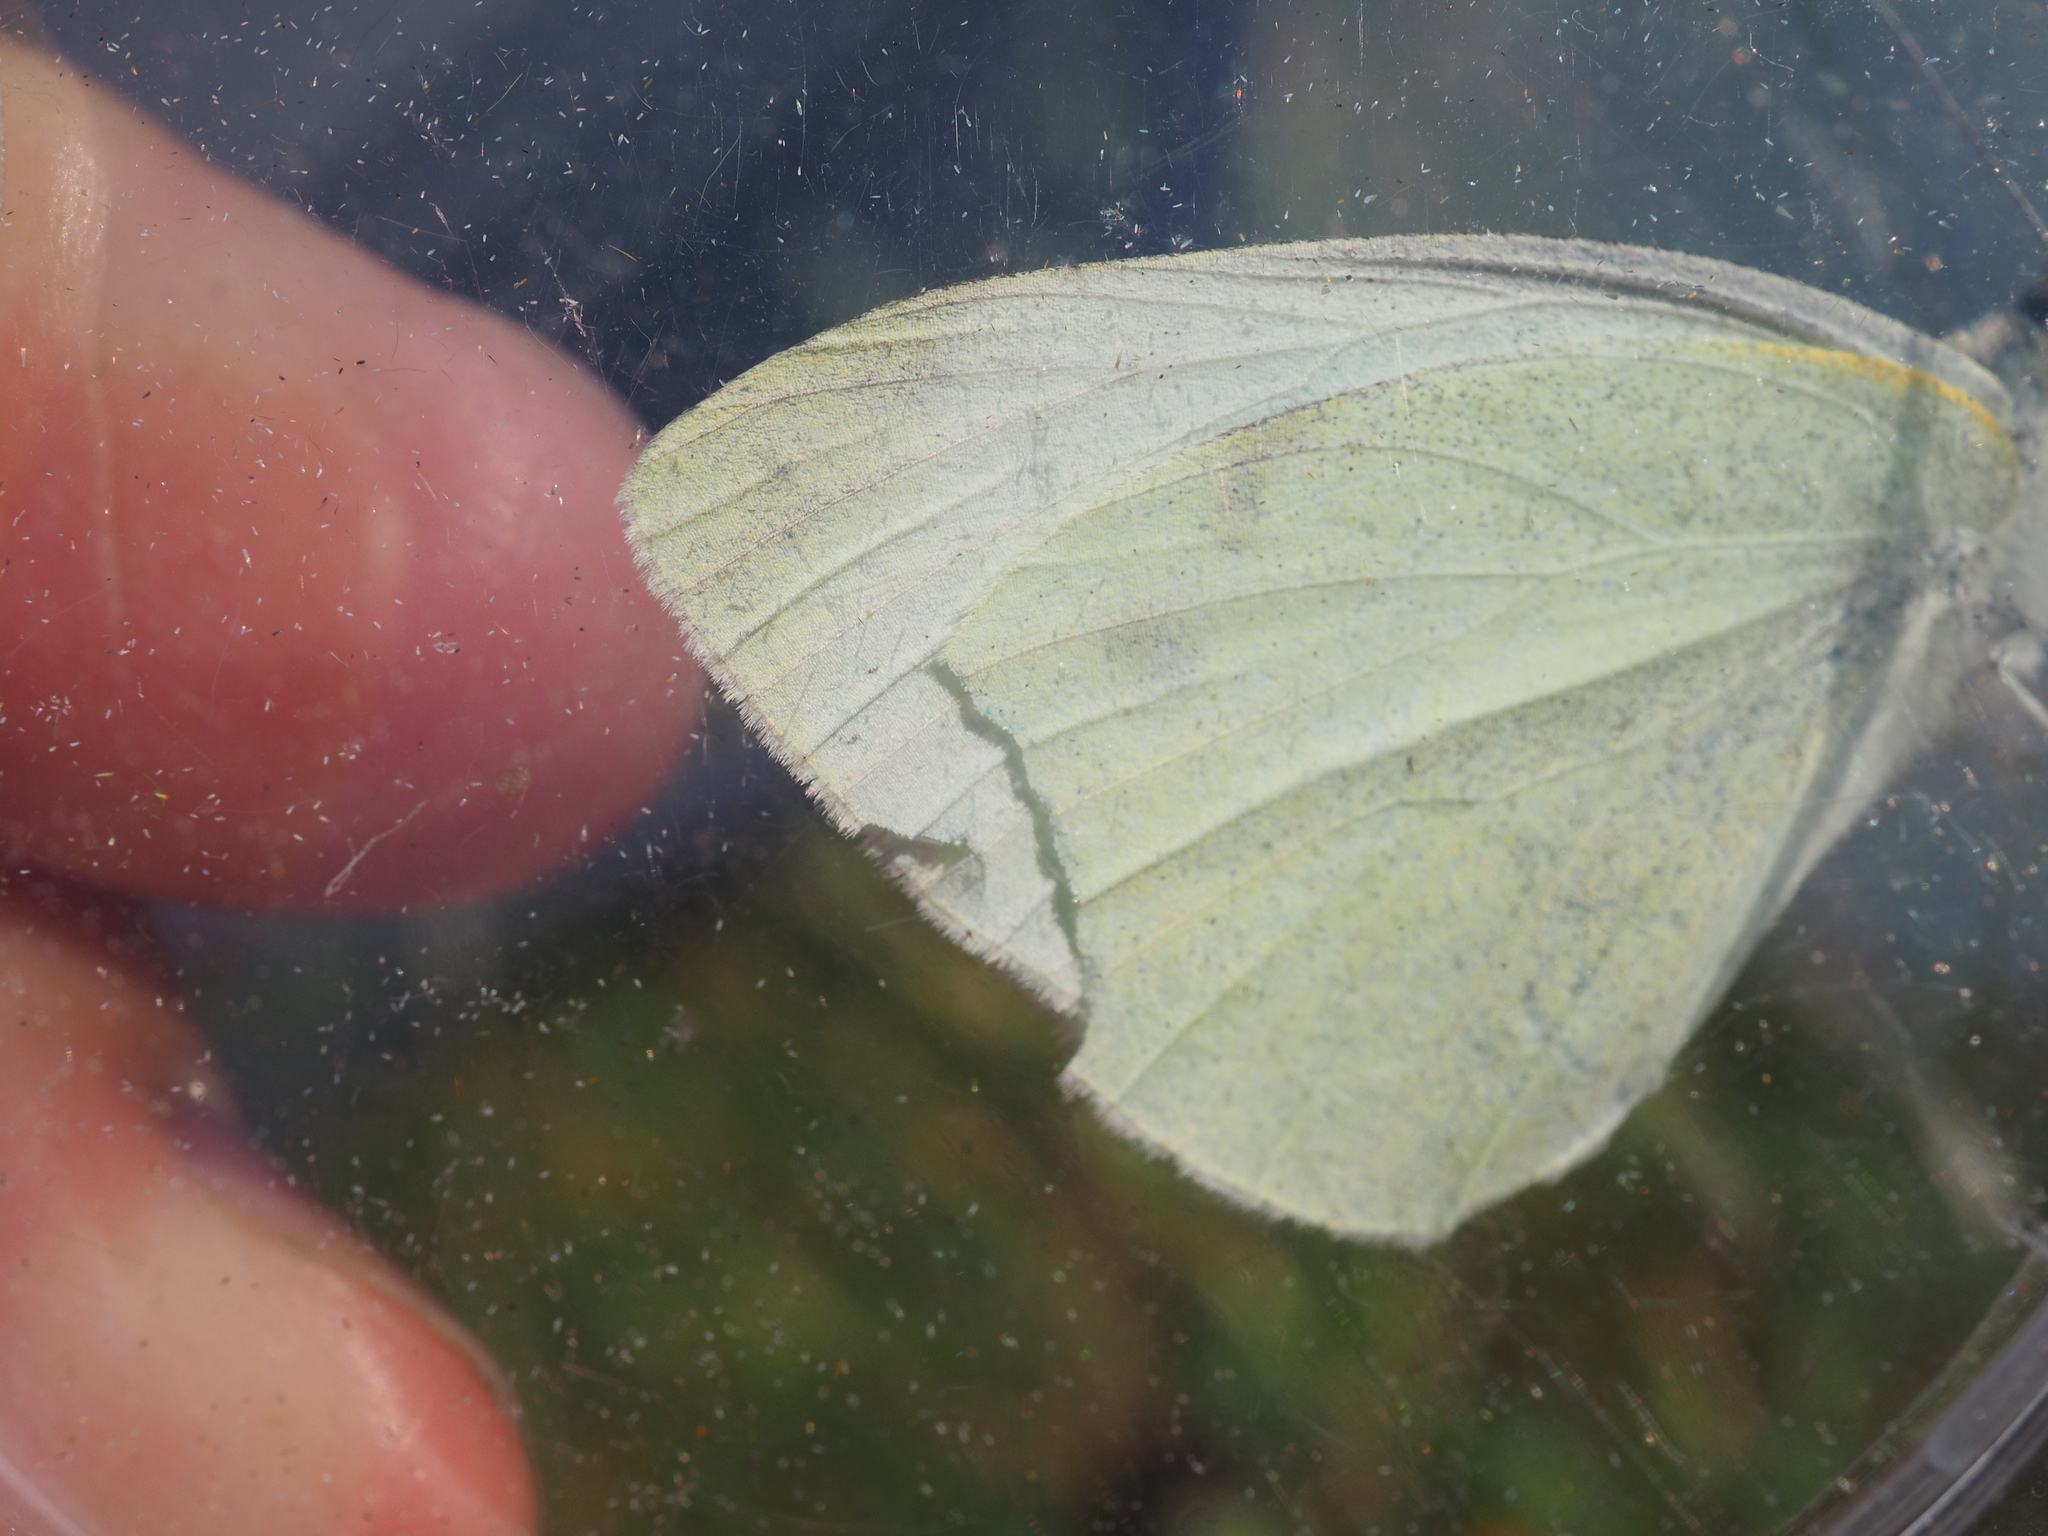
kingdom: Animalia
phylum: Arthropoda
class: Insecta
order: Lepidoptera
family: Pieridae
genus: Pieris
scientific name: Pieris rapae
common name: Small white
